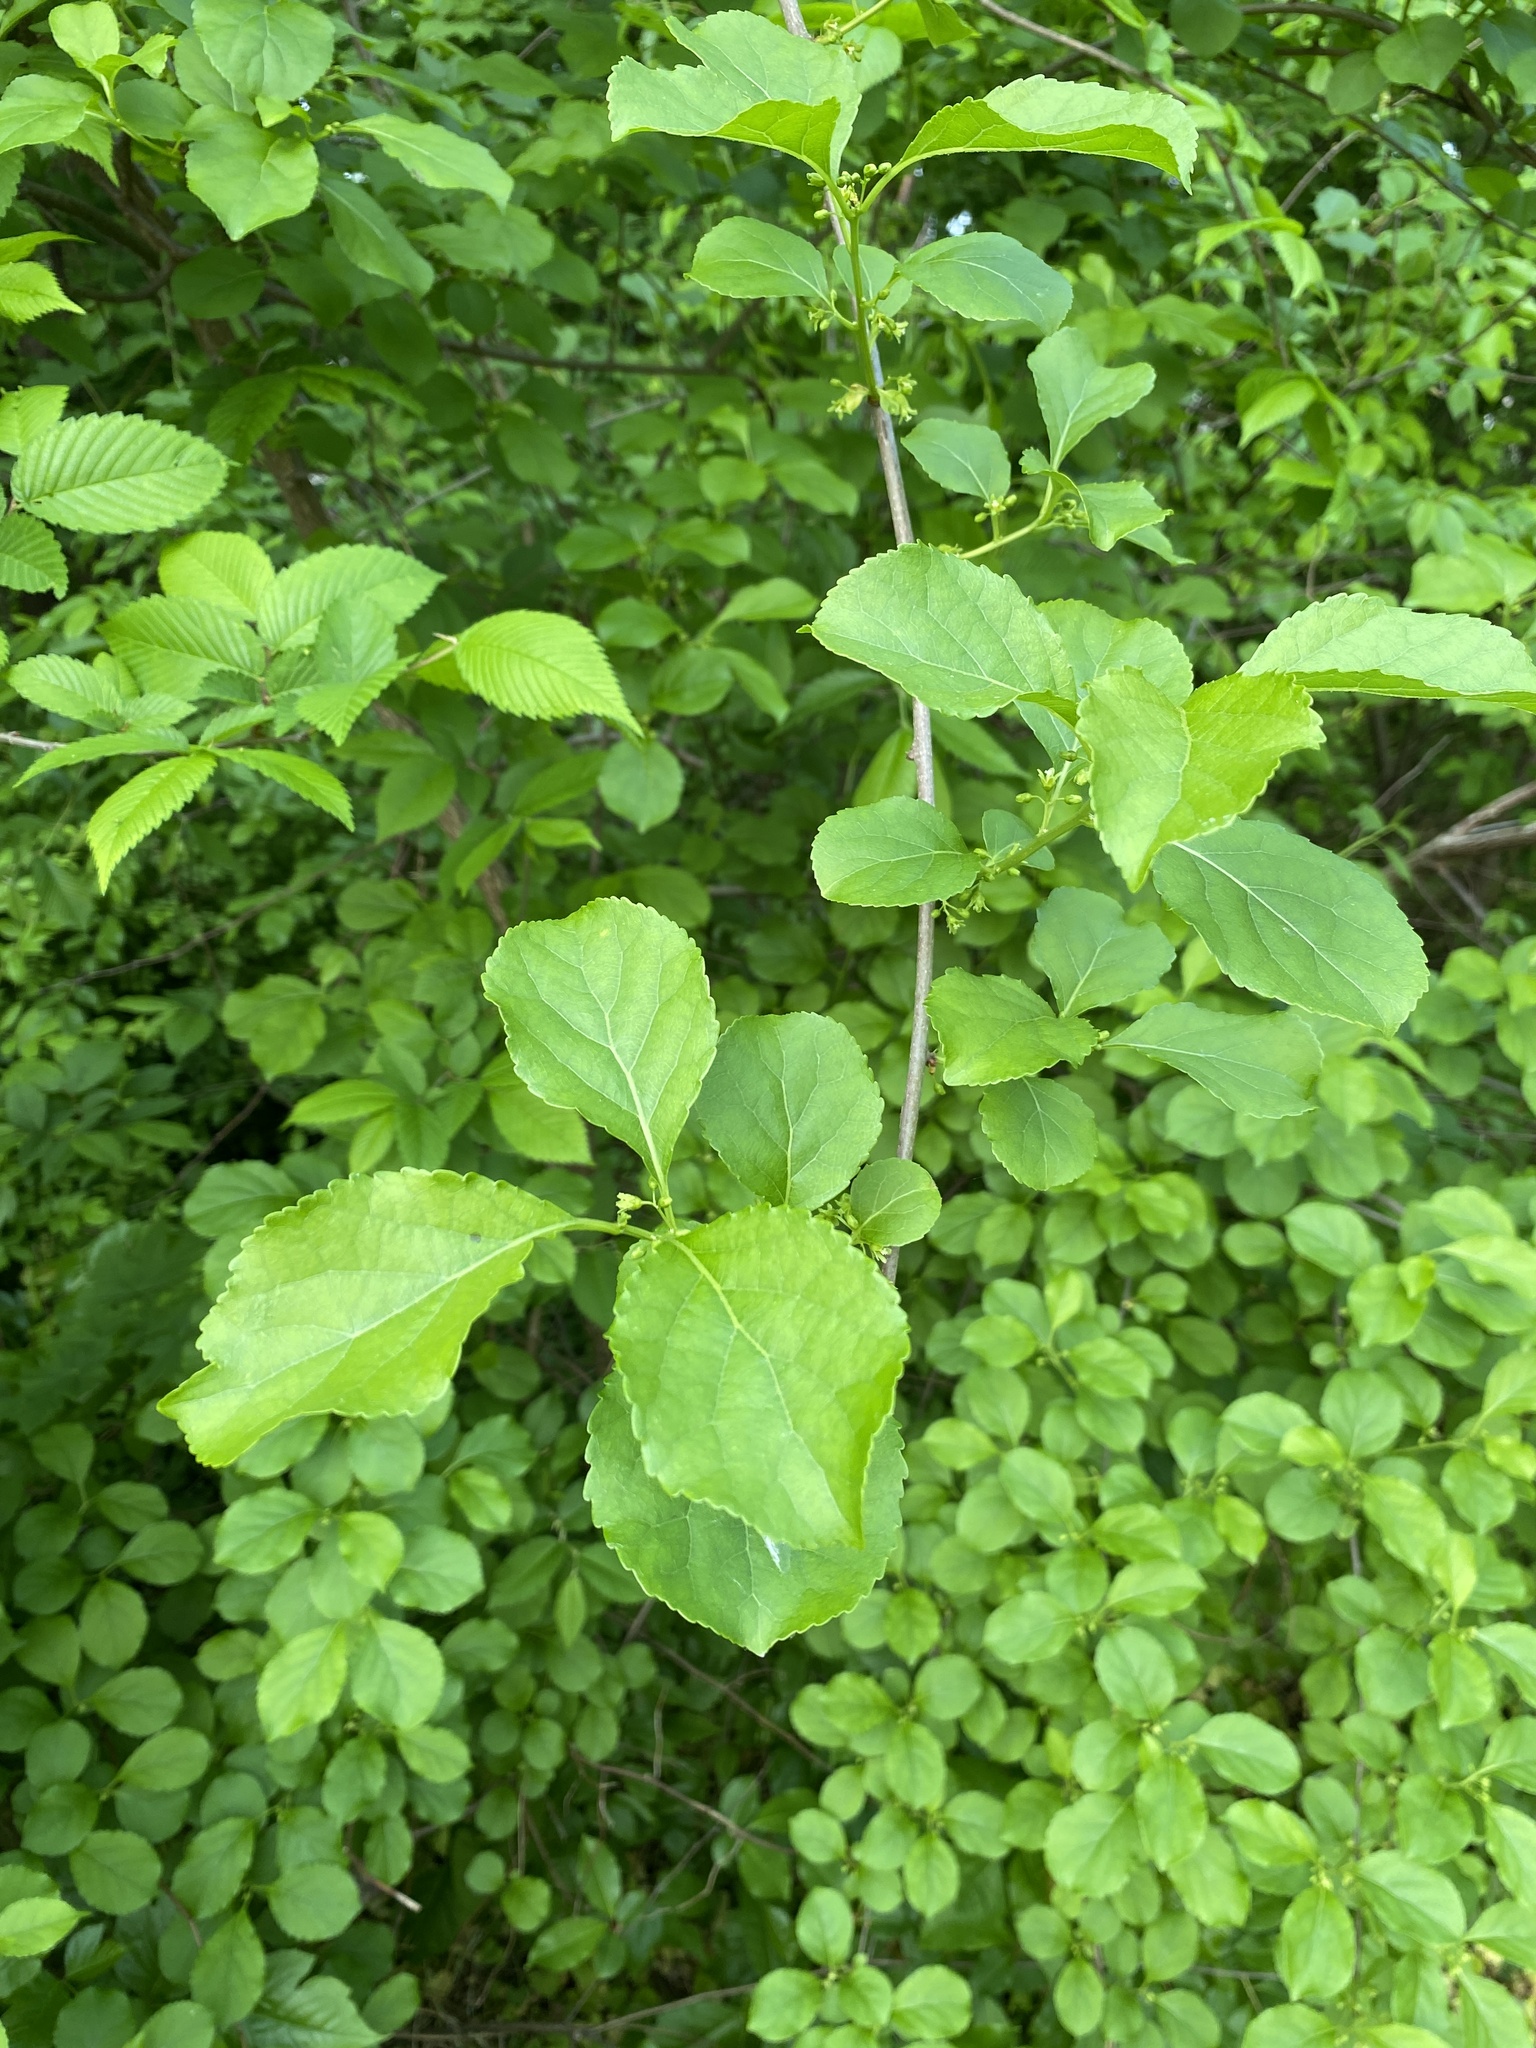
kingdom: Plantae
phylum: Tracheophyta
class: Magnoliopsida
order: Celastrales
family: Celastraceae
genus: Celastrus
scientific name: Celastrus orbiculatus
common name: Oriental bittersweet
